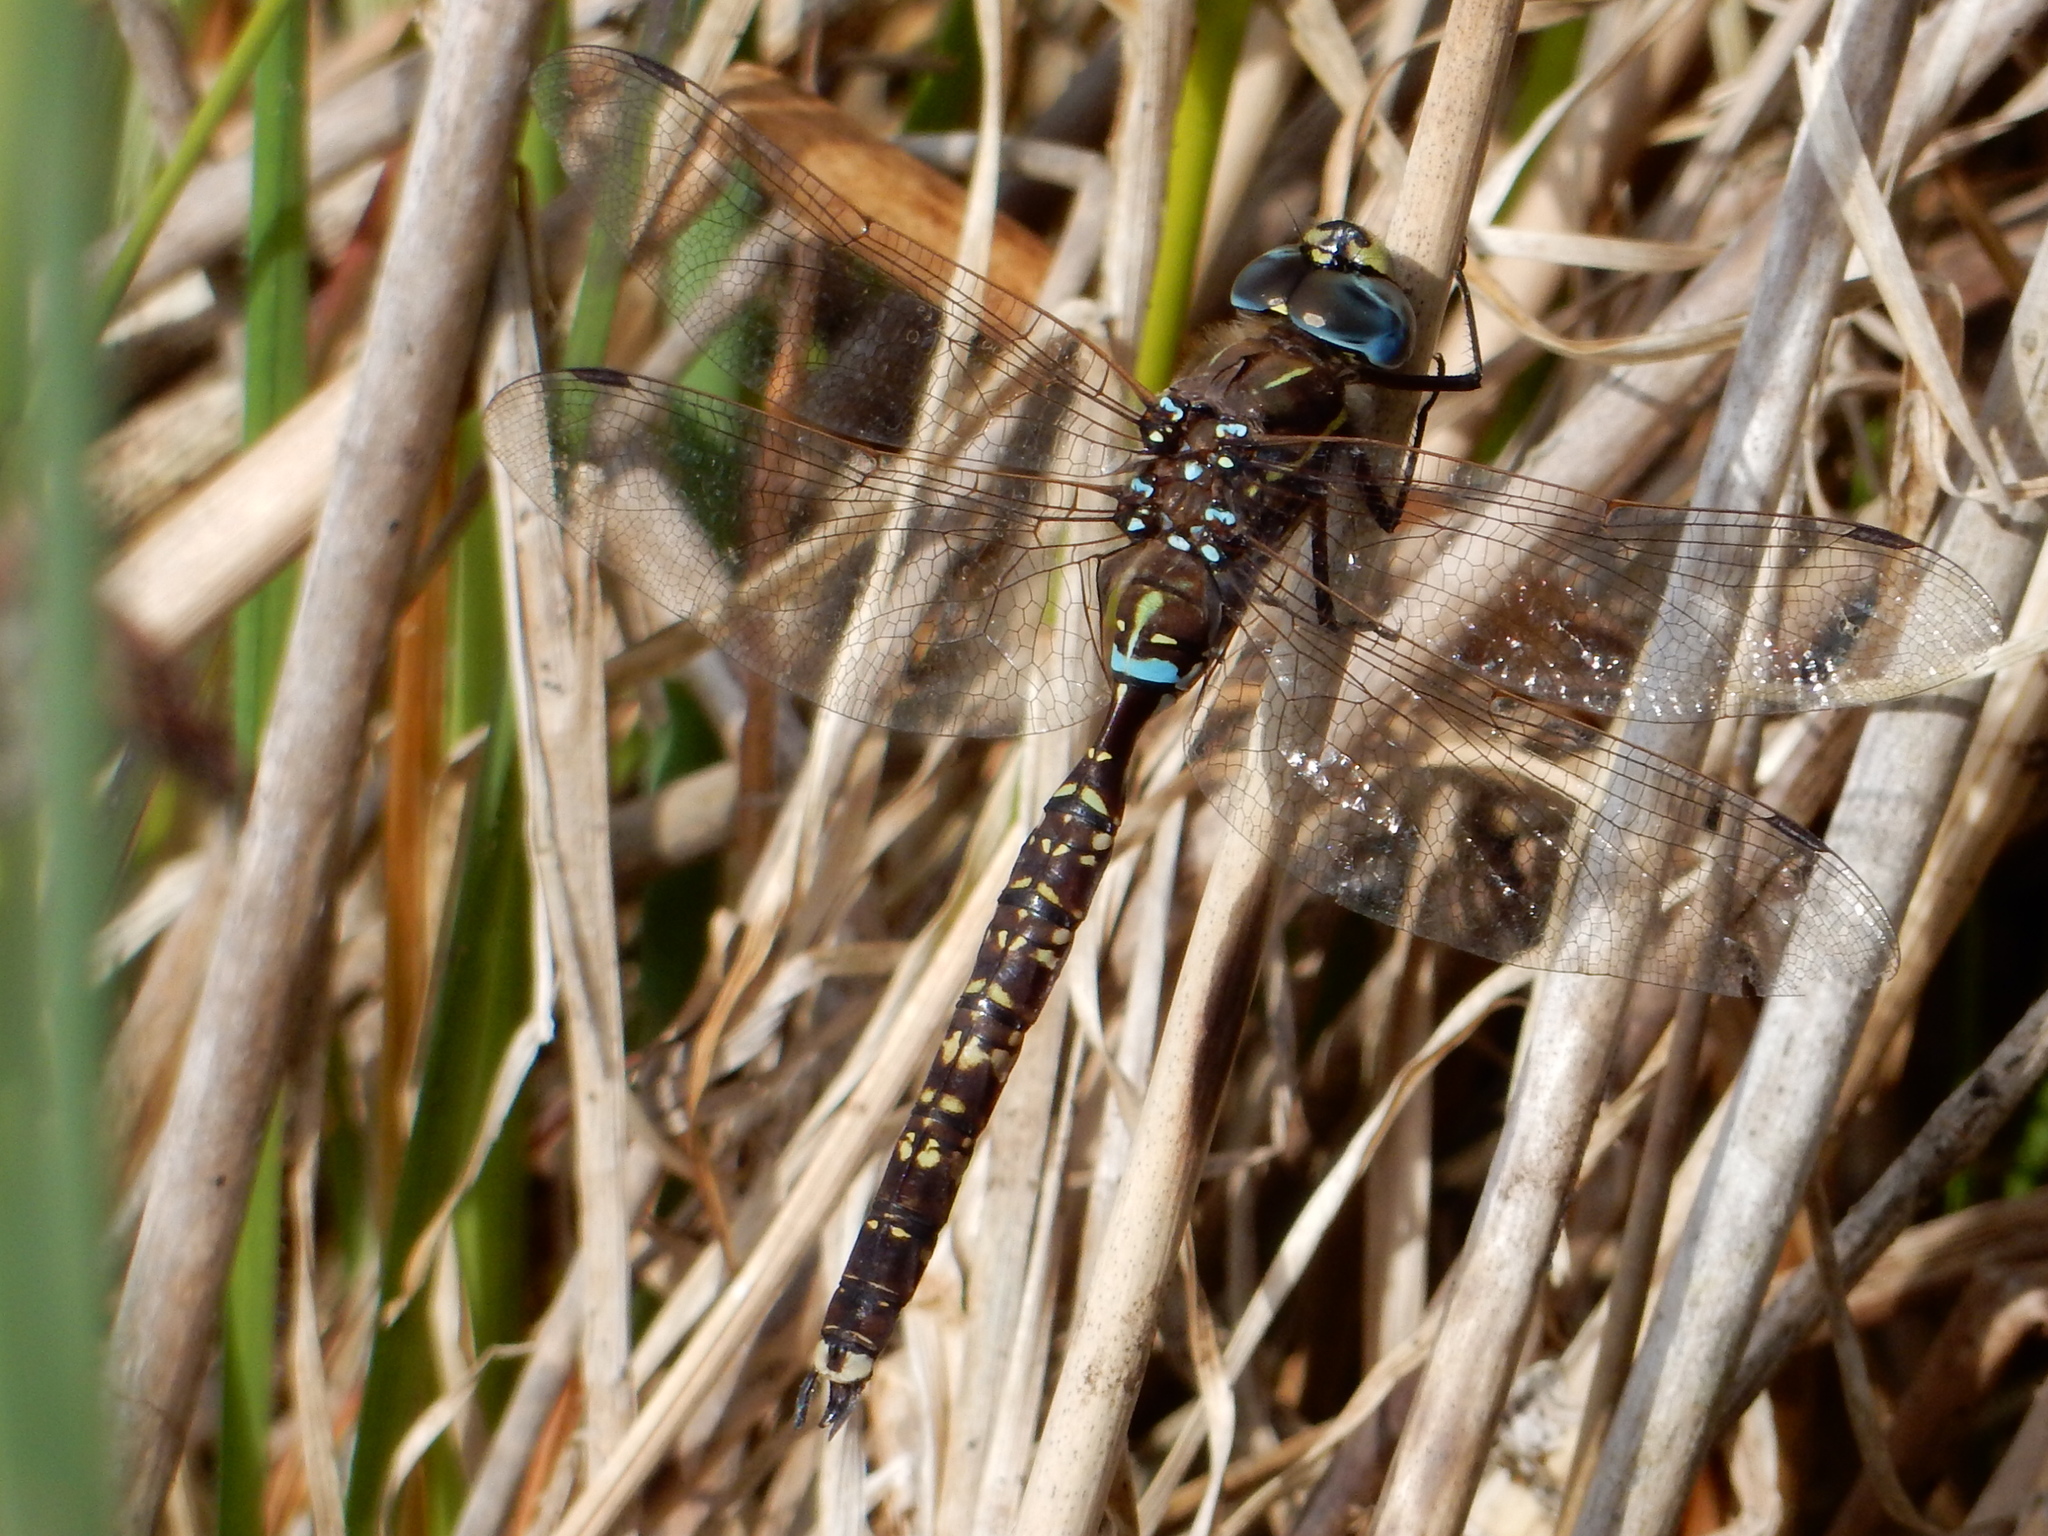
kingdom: Animalia
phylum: Arthropoda
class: Insecta
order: Odonata
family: Aeshnidae
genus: Aeshna
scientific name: Aeshna brevistyla
